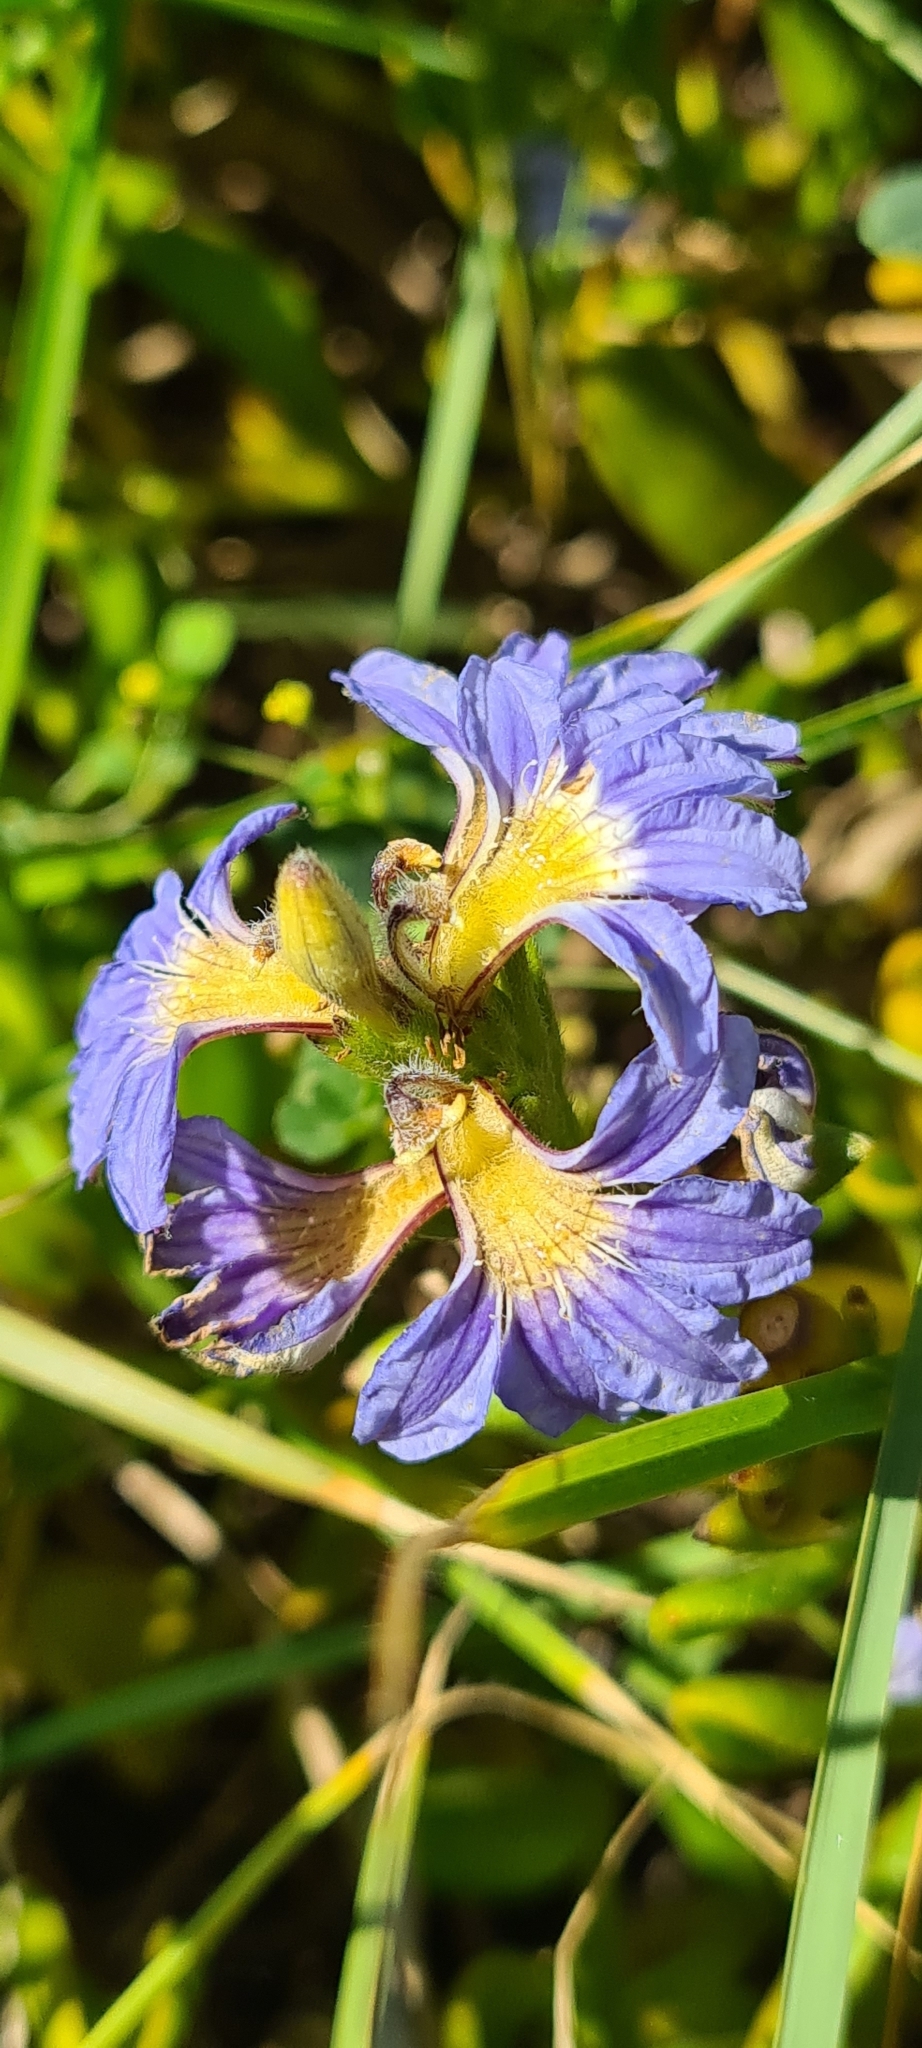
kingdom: Plantae
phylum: Tracheophyta
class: Magnoliopsida
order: Asterales
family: Goodeniaceae
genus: Scaevola
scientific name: Scaevola calendulacea
